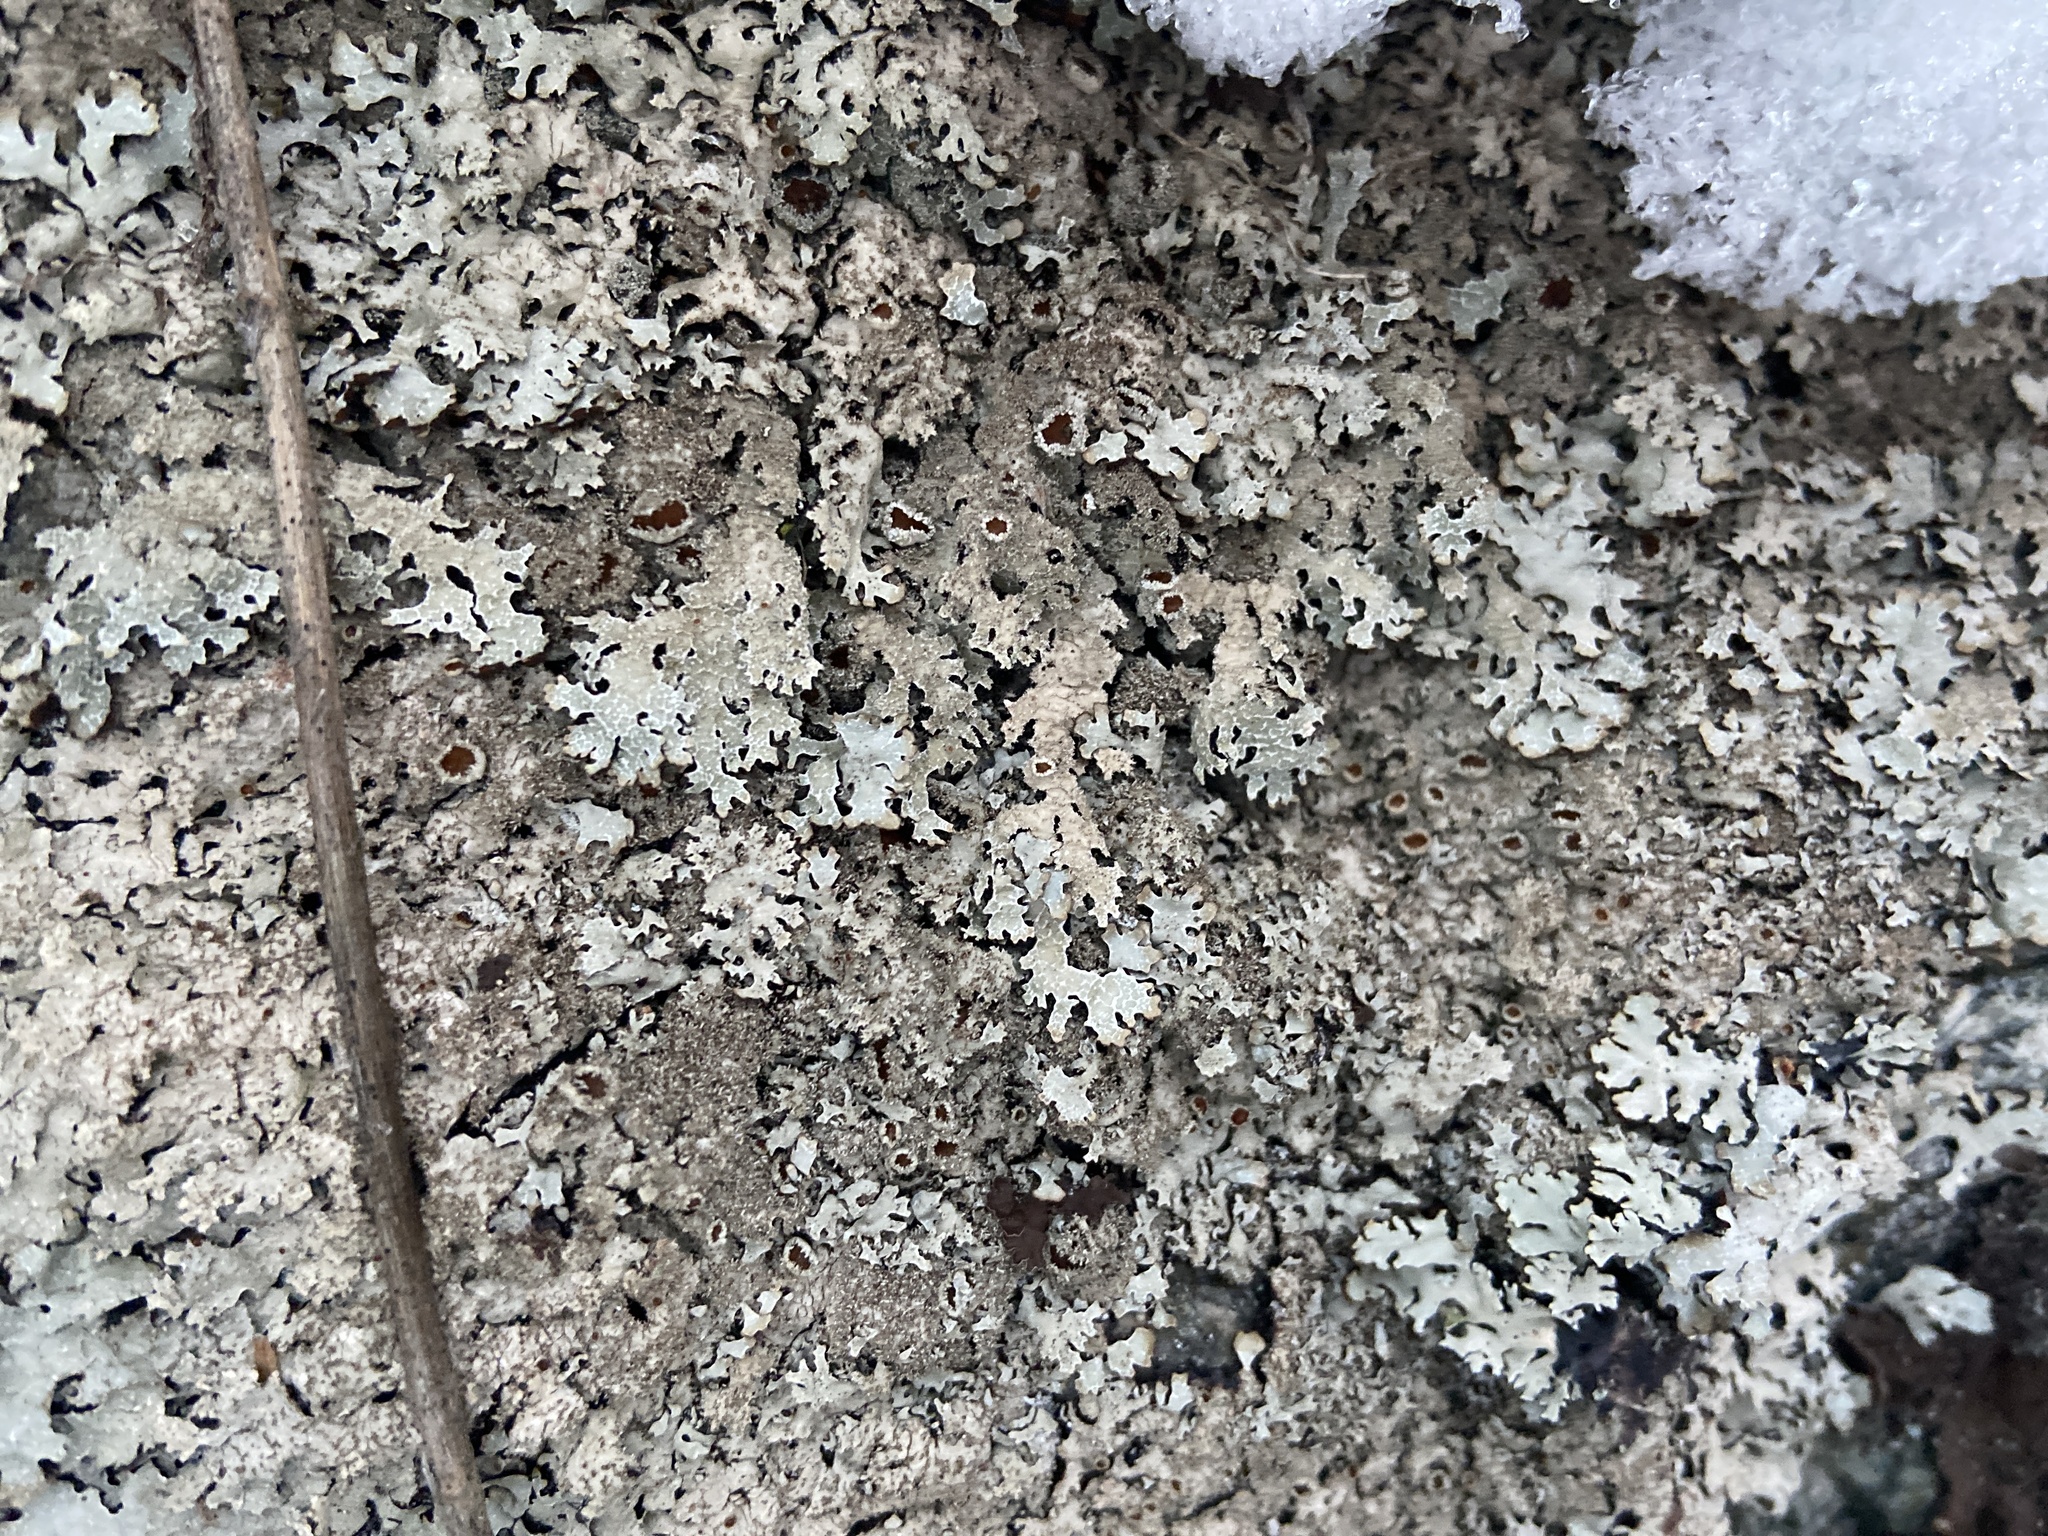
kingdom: Fungi
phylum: Ascomycota
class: Lecanoromycetes
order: Lecanorales
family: Parmeliaceae
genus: Parmelia
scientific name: Parmelia saxatilis
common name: Salted shield lichen
